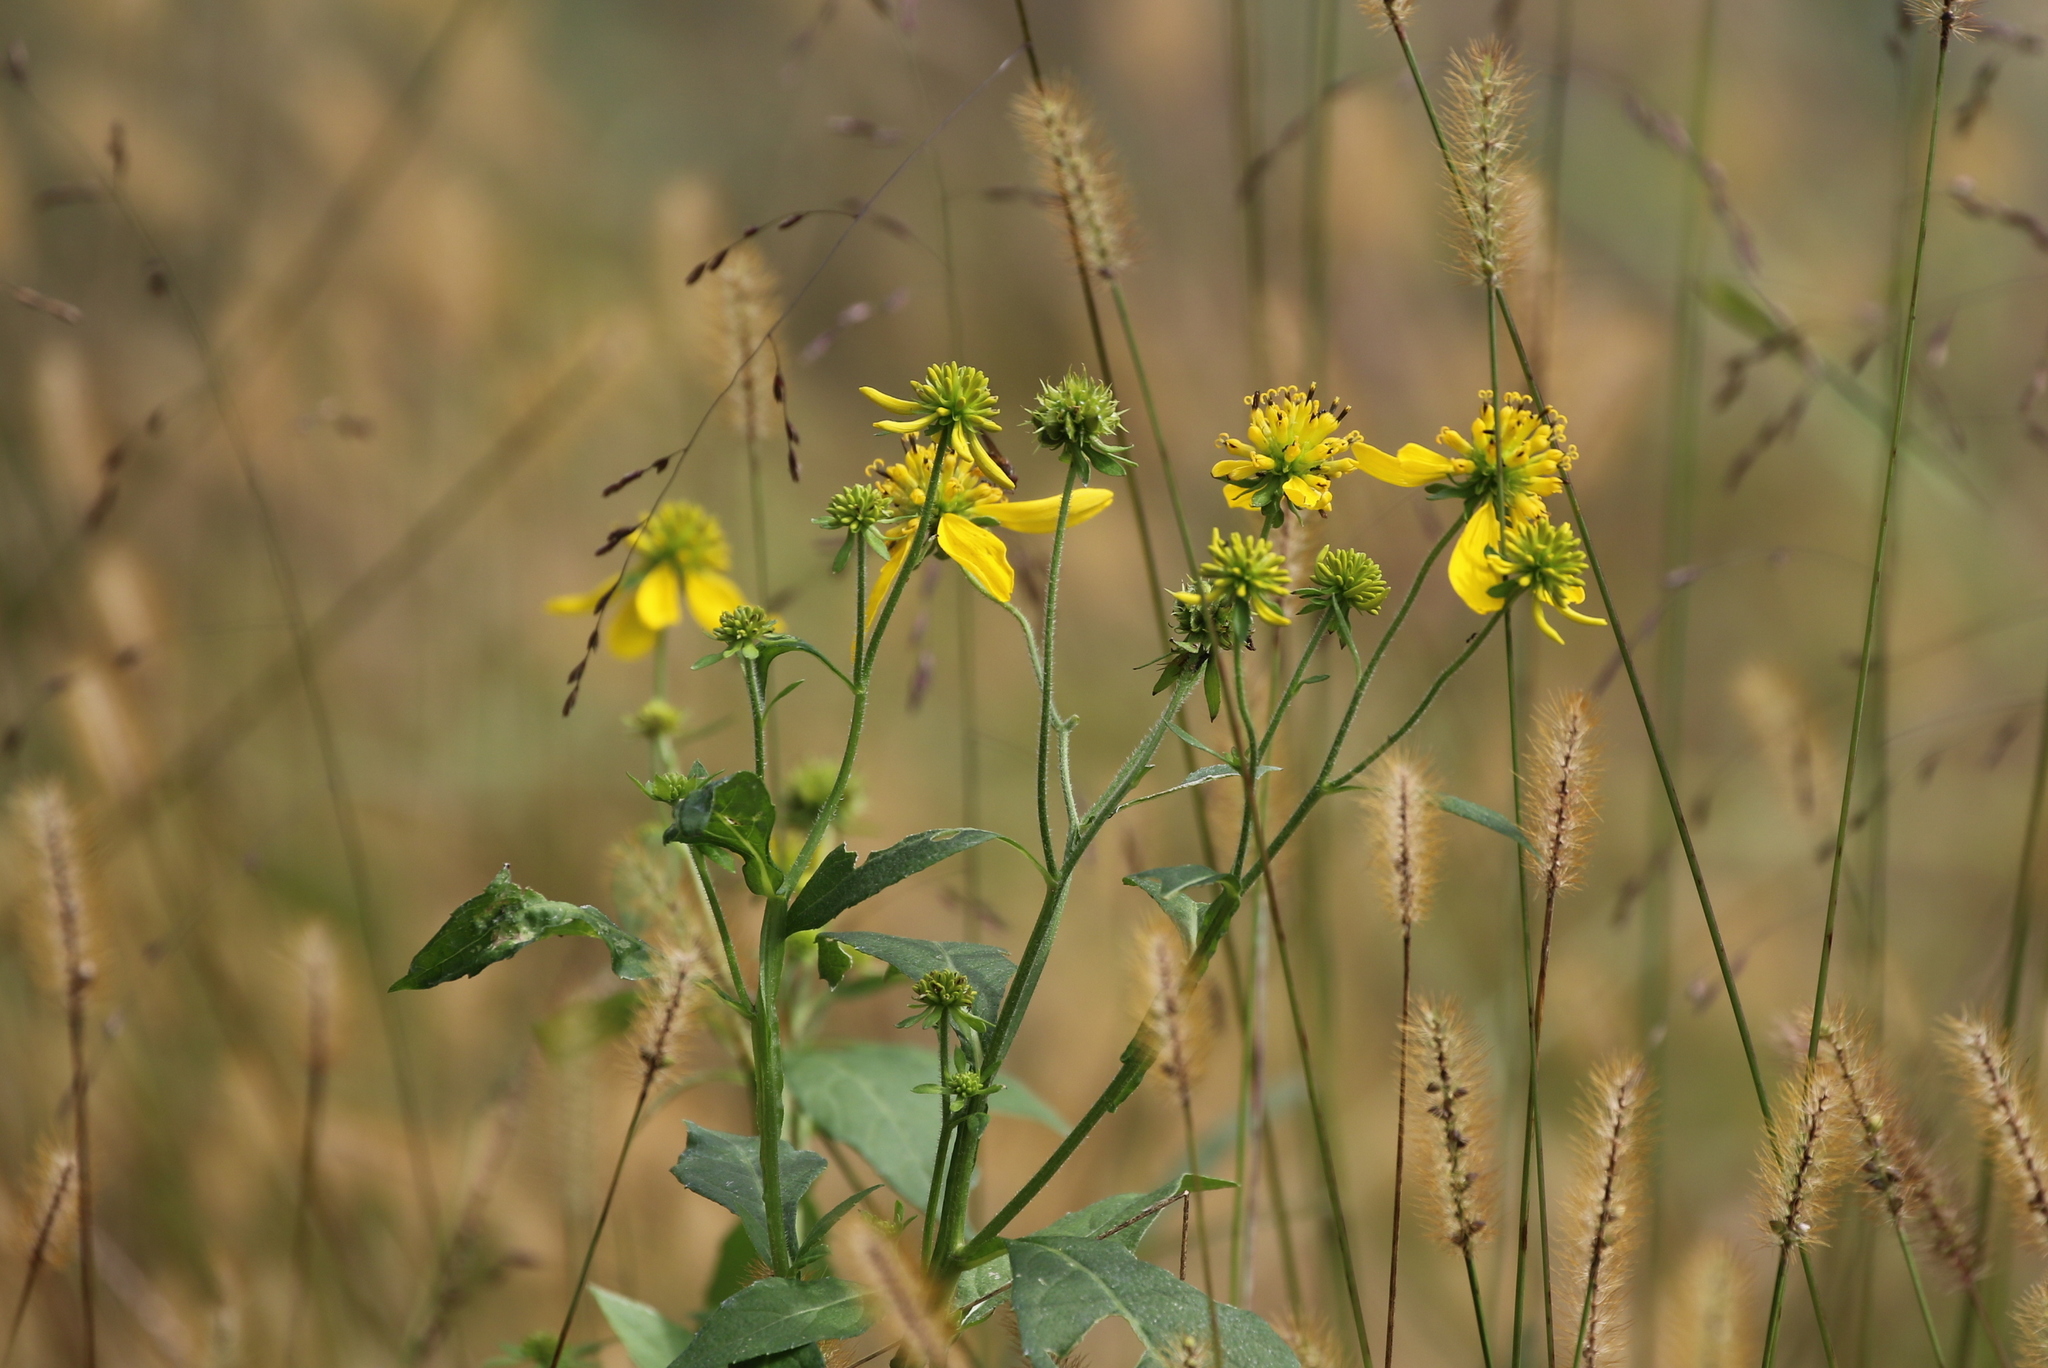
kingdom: Plantae
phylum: Tracheophyta
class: Magnoliopsida
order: Asterales
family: Asteraceae
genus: Verbesina
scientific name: Verbesina alternifolia
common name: Wingstem
